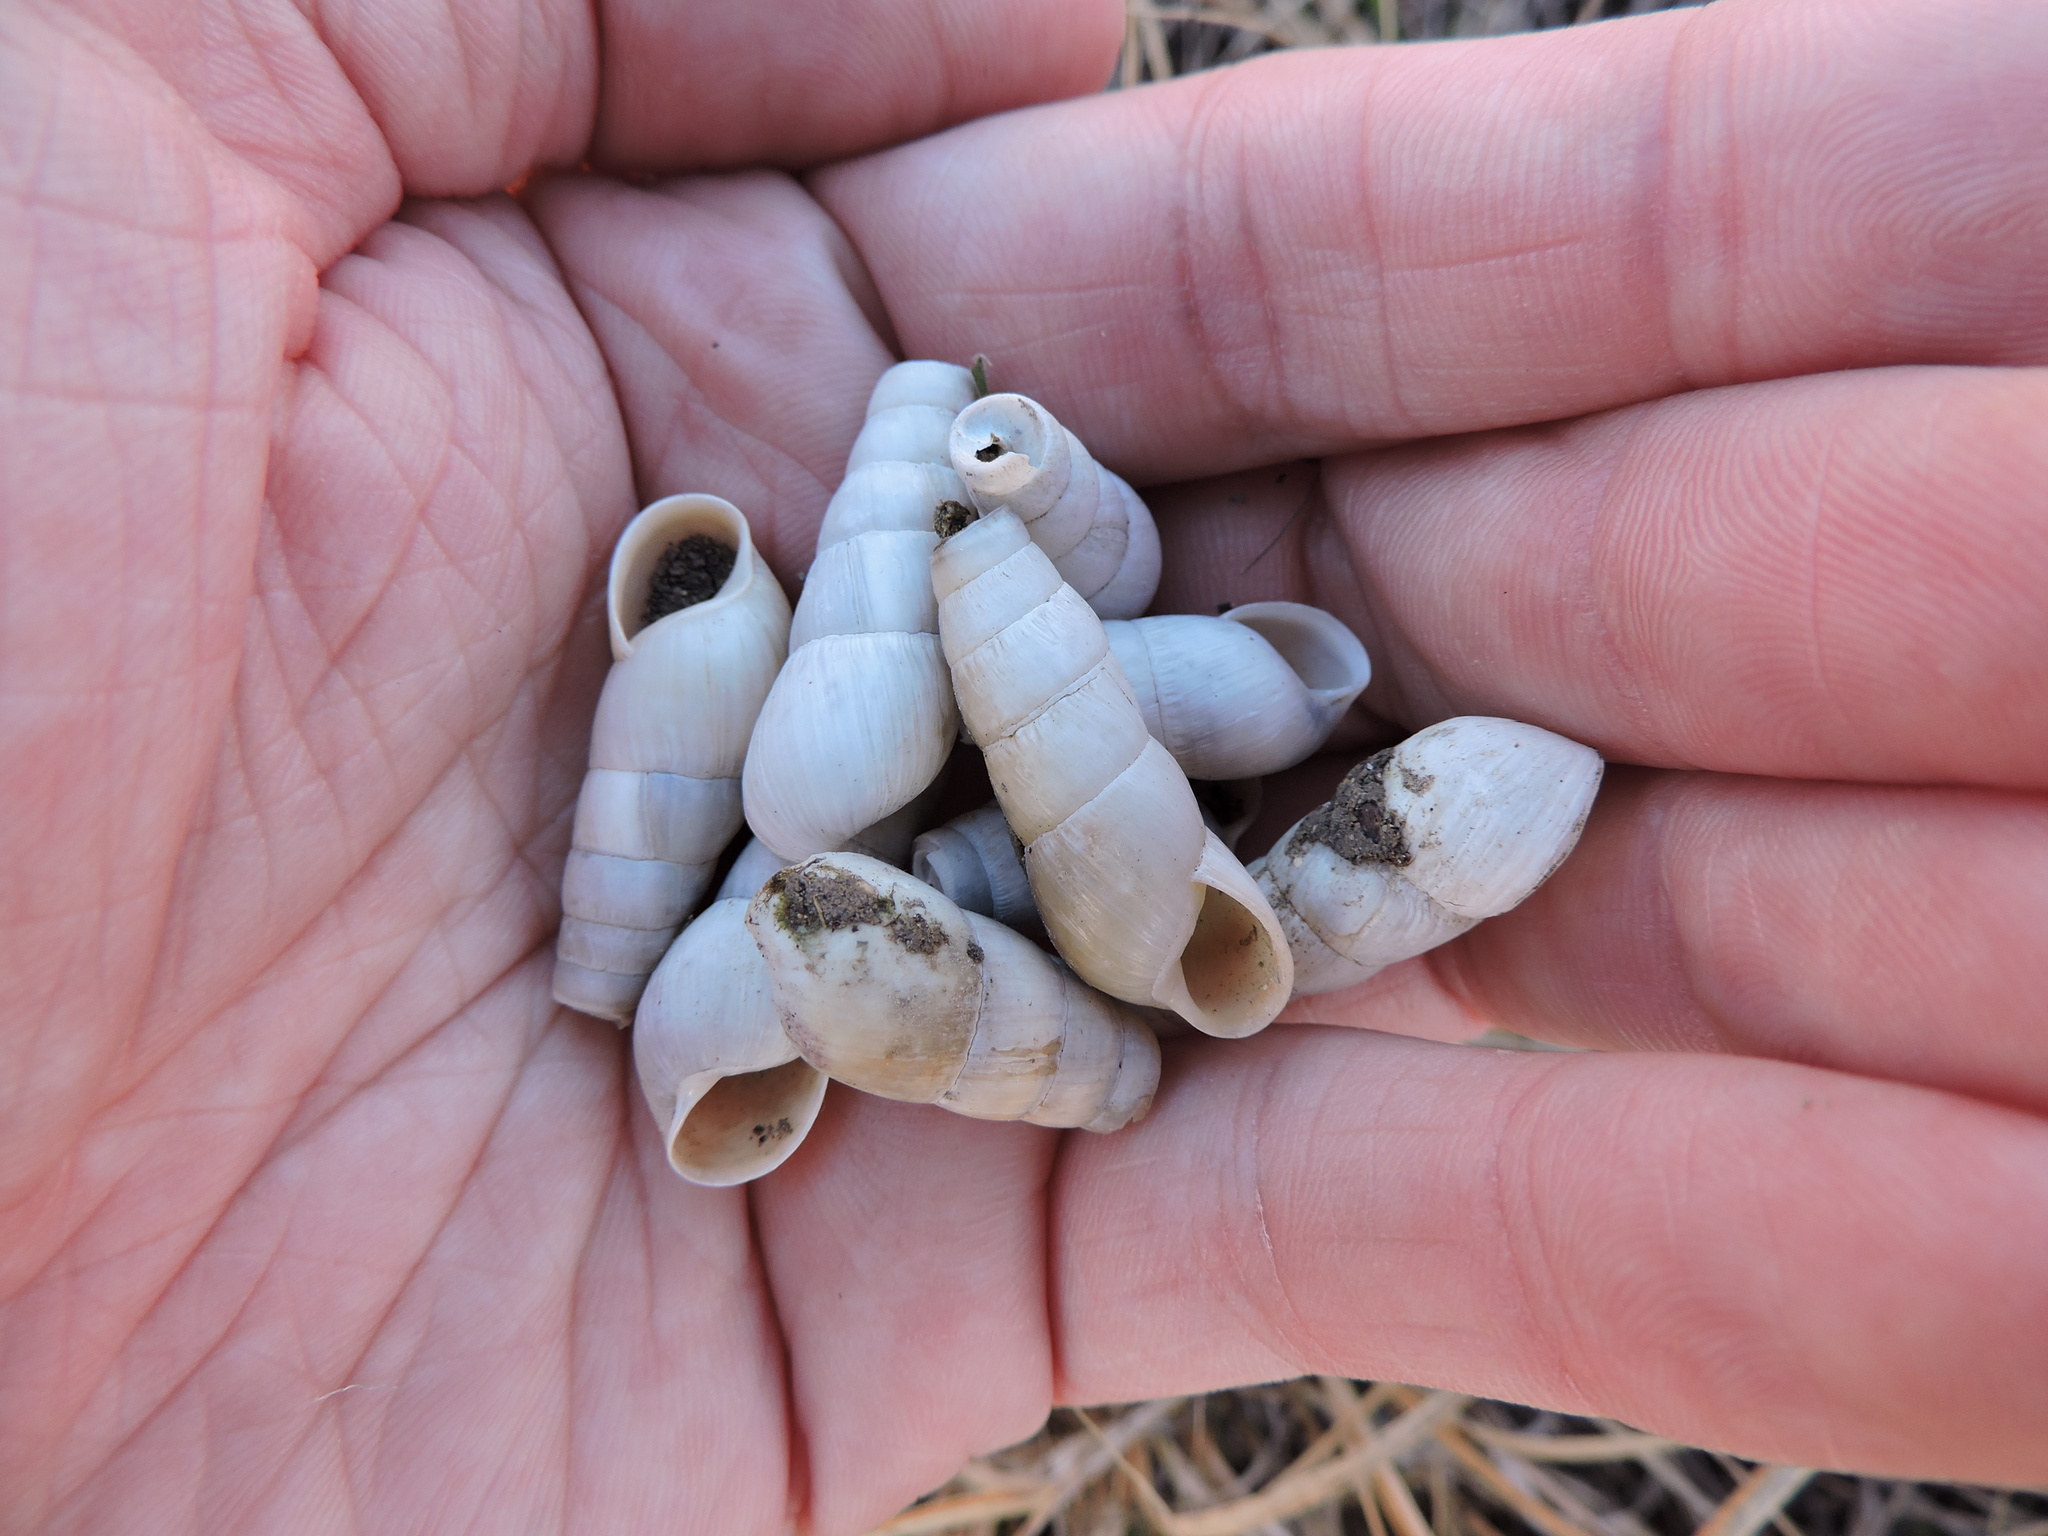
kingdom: Animalia
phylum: Mollusca
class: Gastropoda
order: Stylommatophora
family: Achatinidae
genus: Rumina
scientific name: Rumina decollata
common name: Decollate snail
